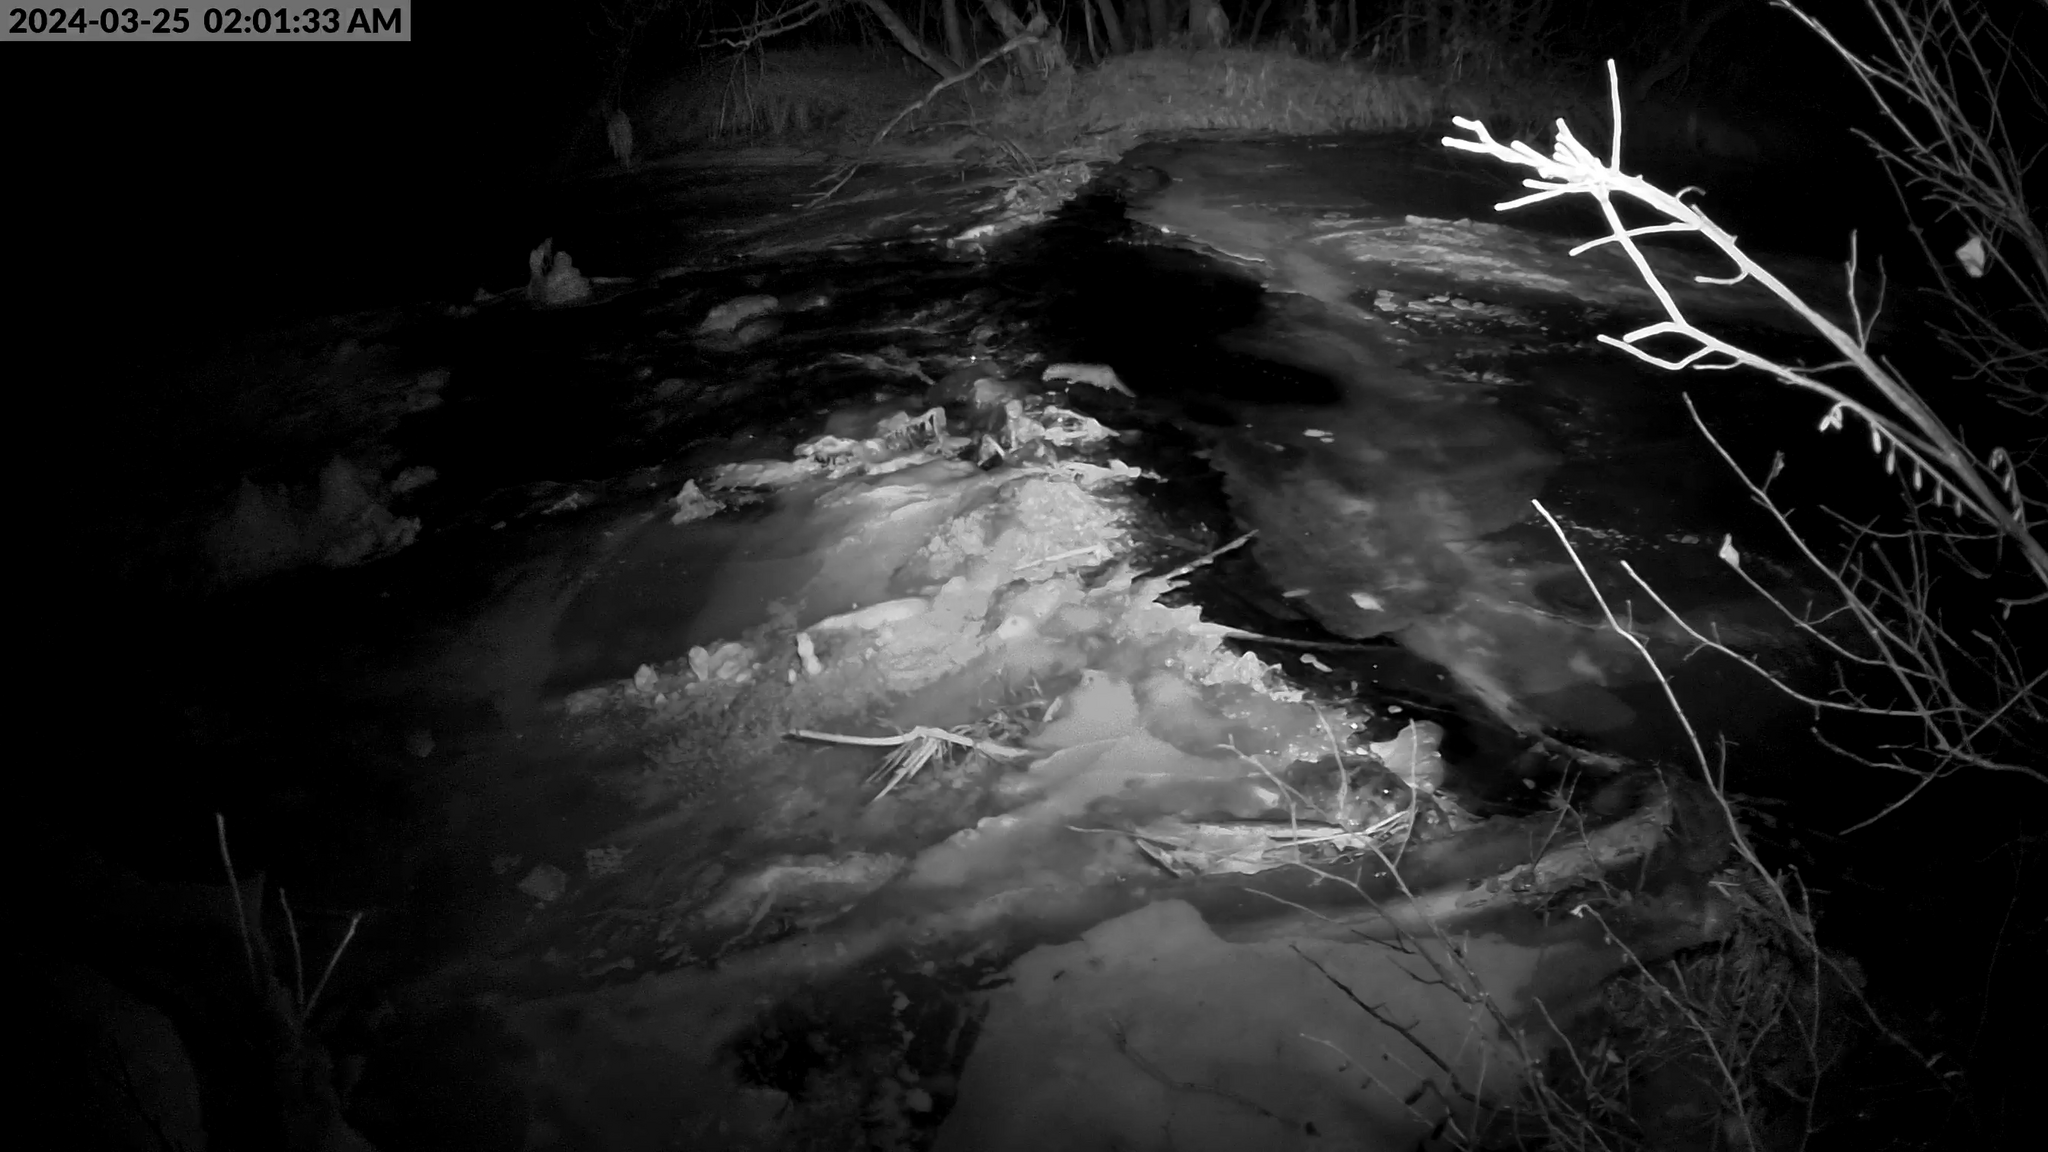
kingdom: Animalia
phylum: Chordata
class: Mammalia
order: Carnivora
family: Mustelidae
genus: Mustela
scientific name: Mustela
